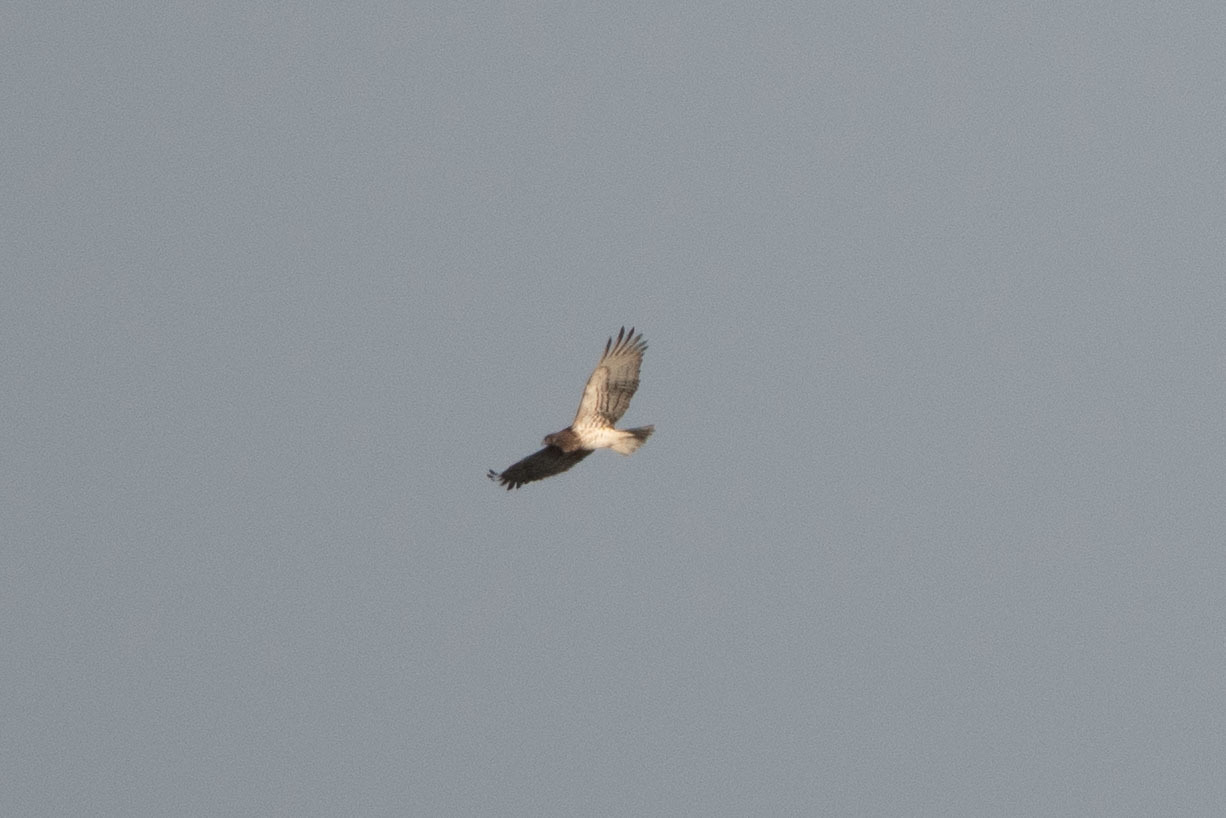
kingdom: Animalia
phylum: Chordata
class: Aves
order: Accipitriformes
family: Accipitridae
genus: Circaetus
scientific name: Circaetus gallicus
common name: Short-toed snake eagle
